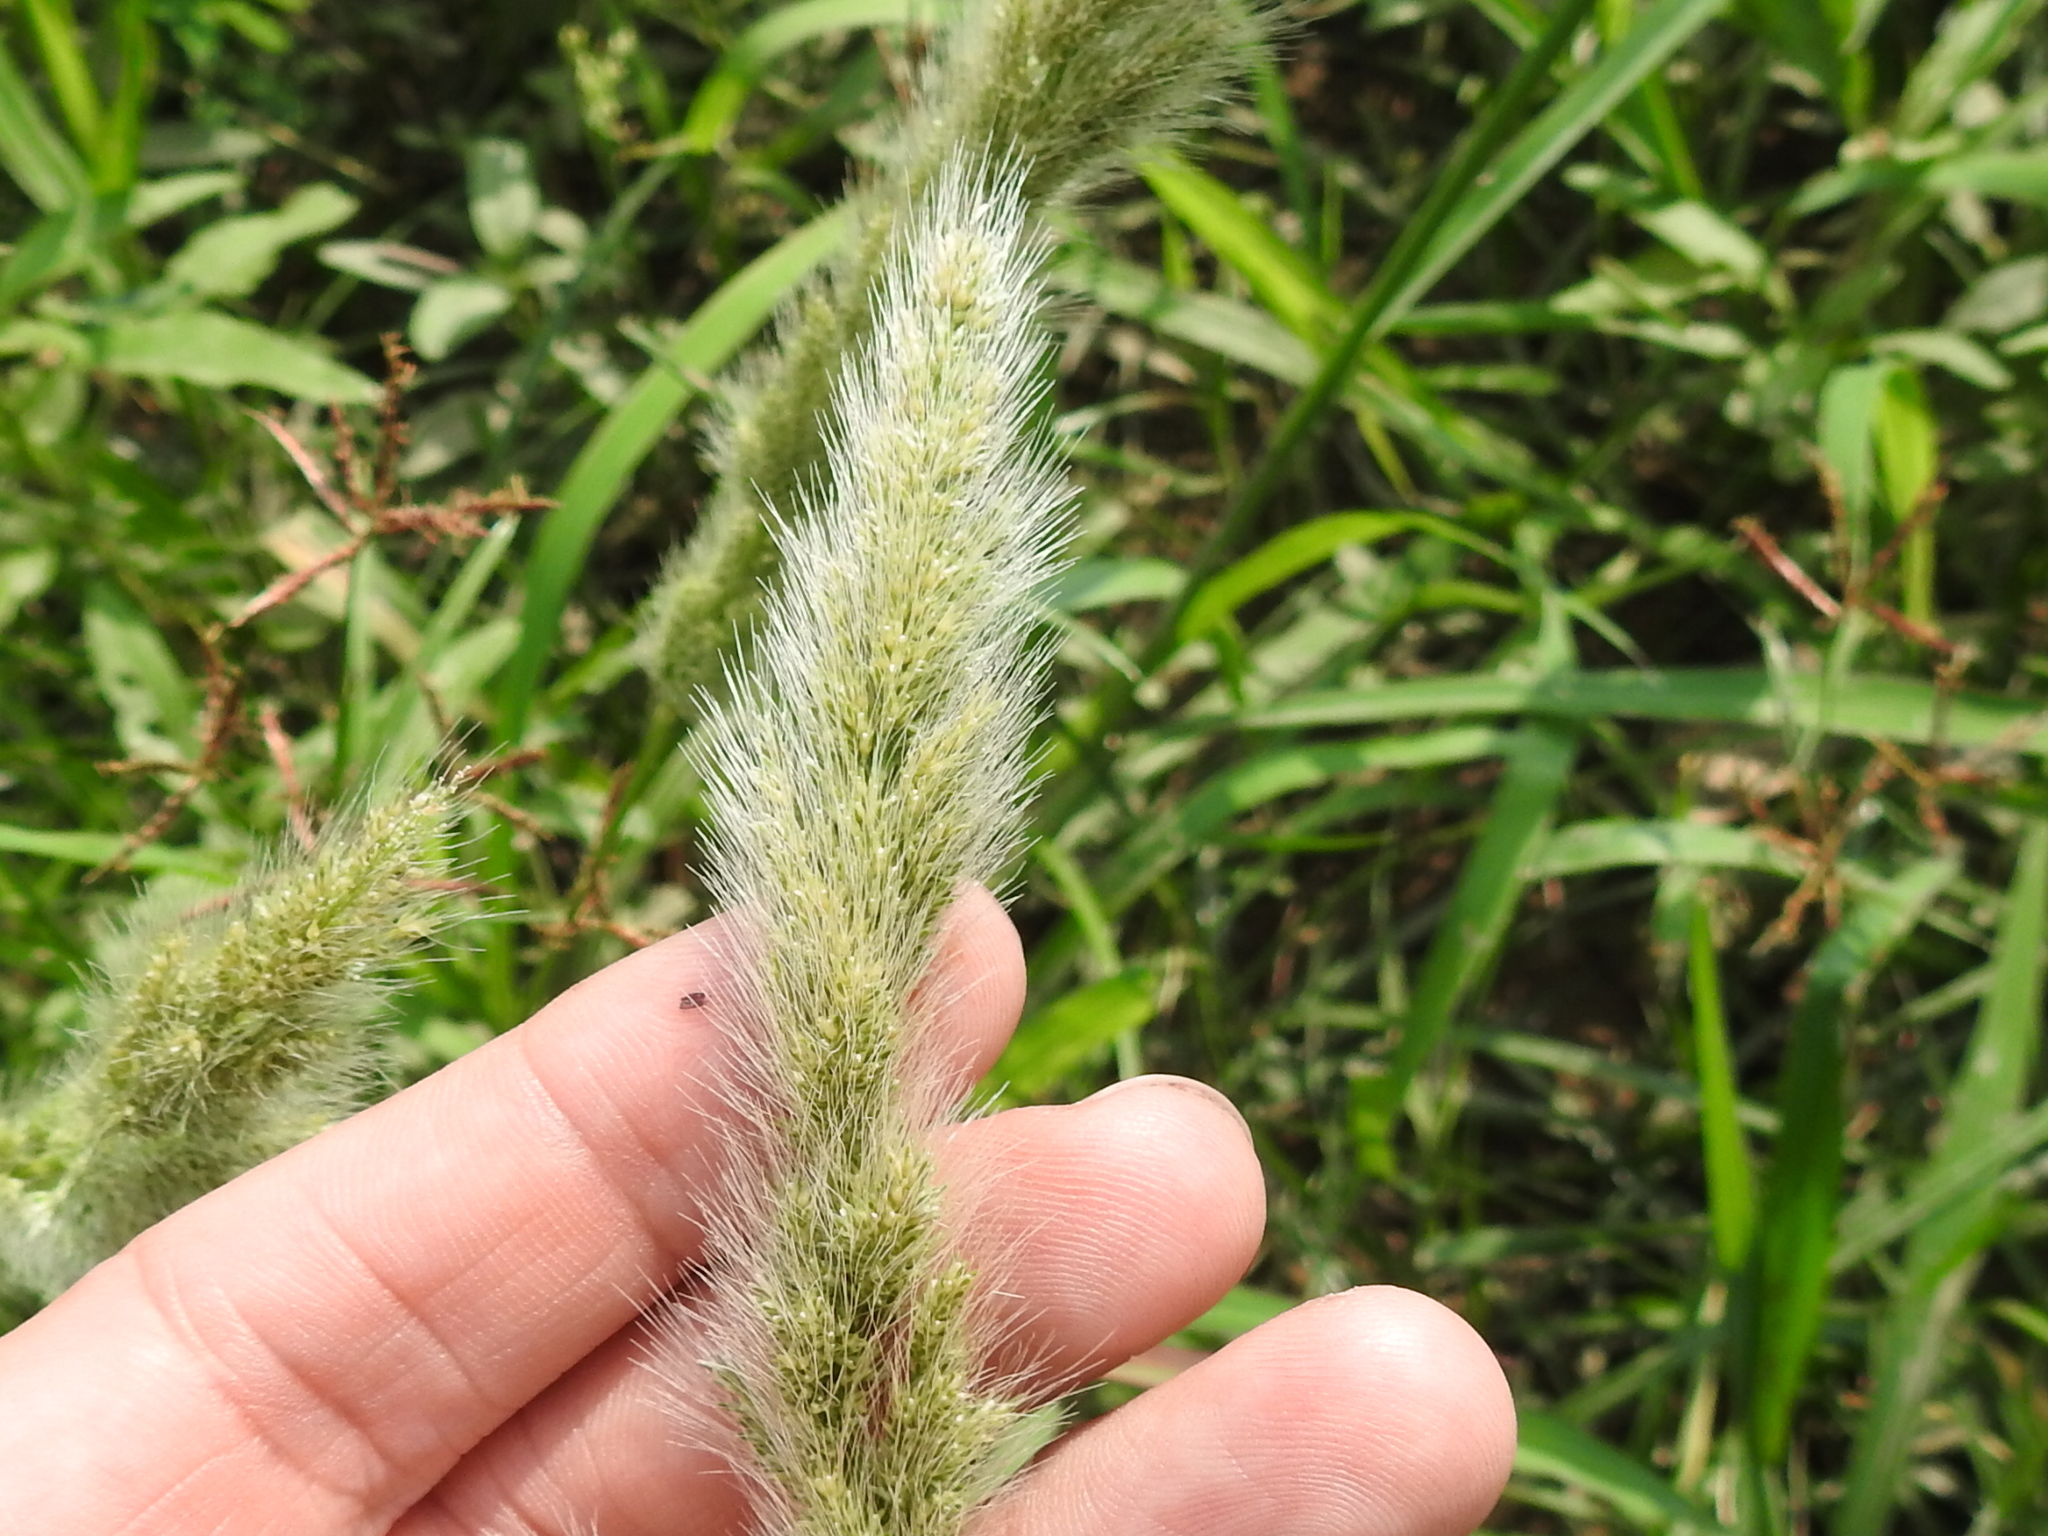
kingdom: Plantae
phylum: Tracheophyta
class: Liliopsida
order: Poales
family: Poaceae
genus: Polypogon
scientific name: Polypogon monspeliensis
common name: Annual rabbitsfoot grass
